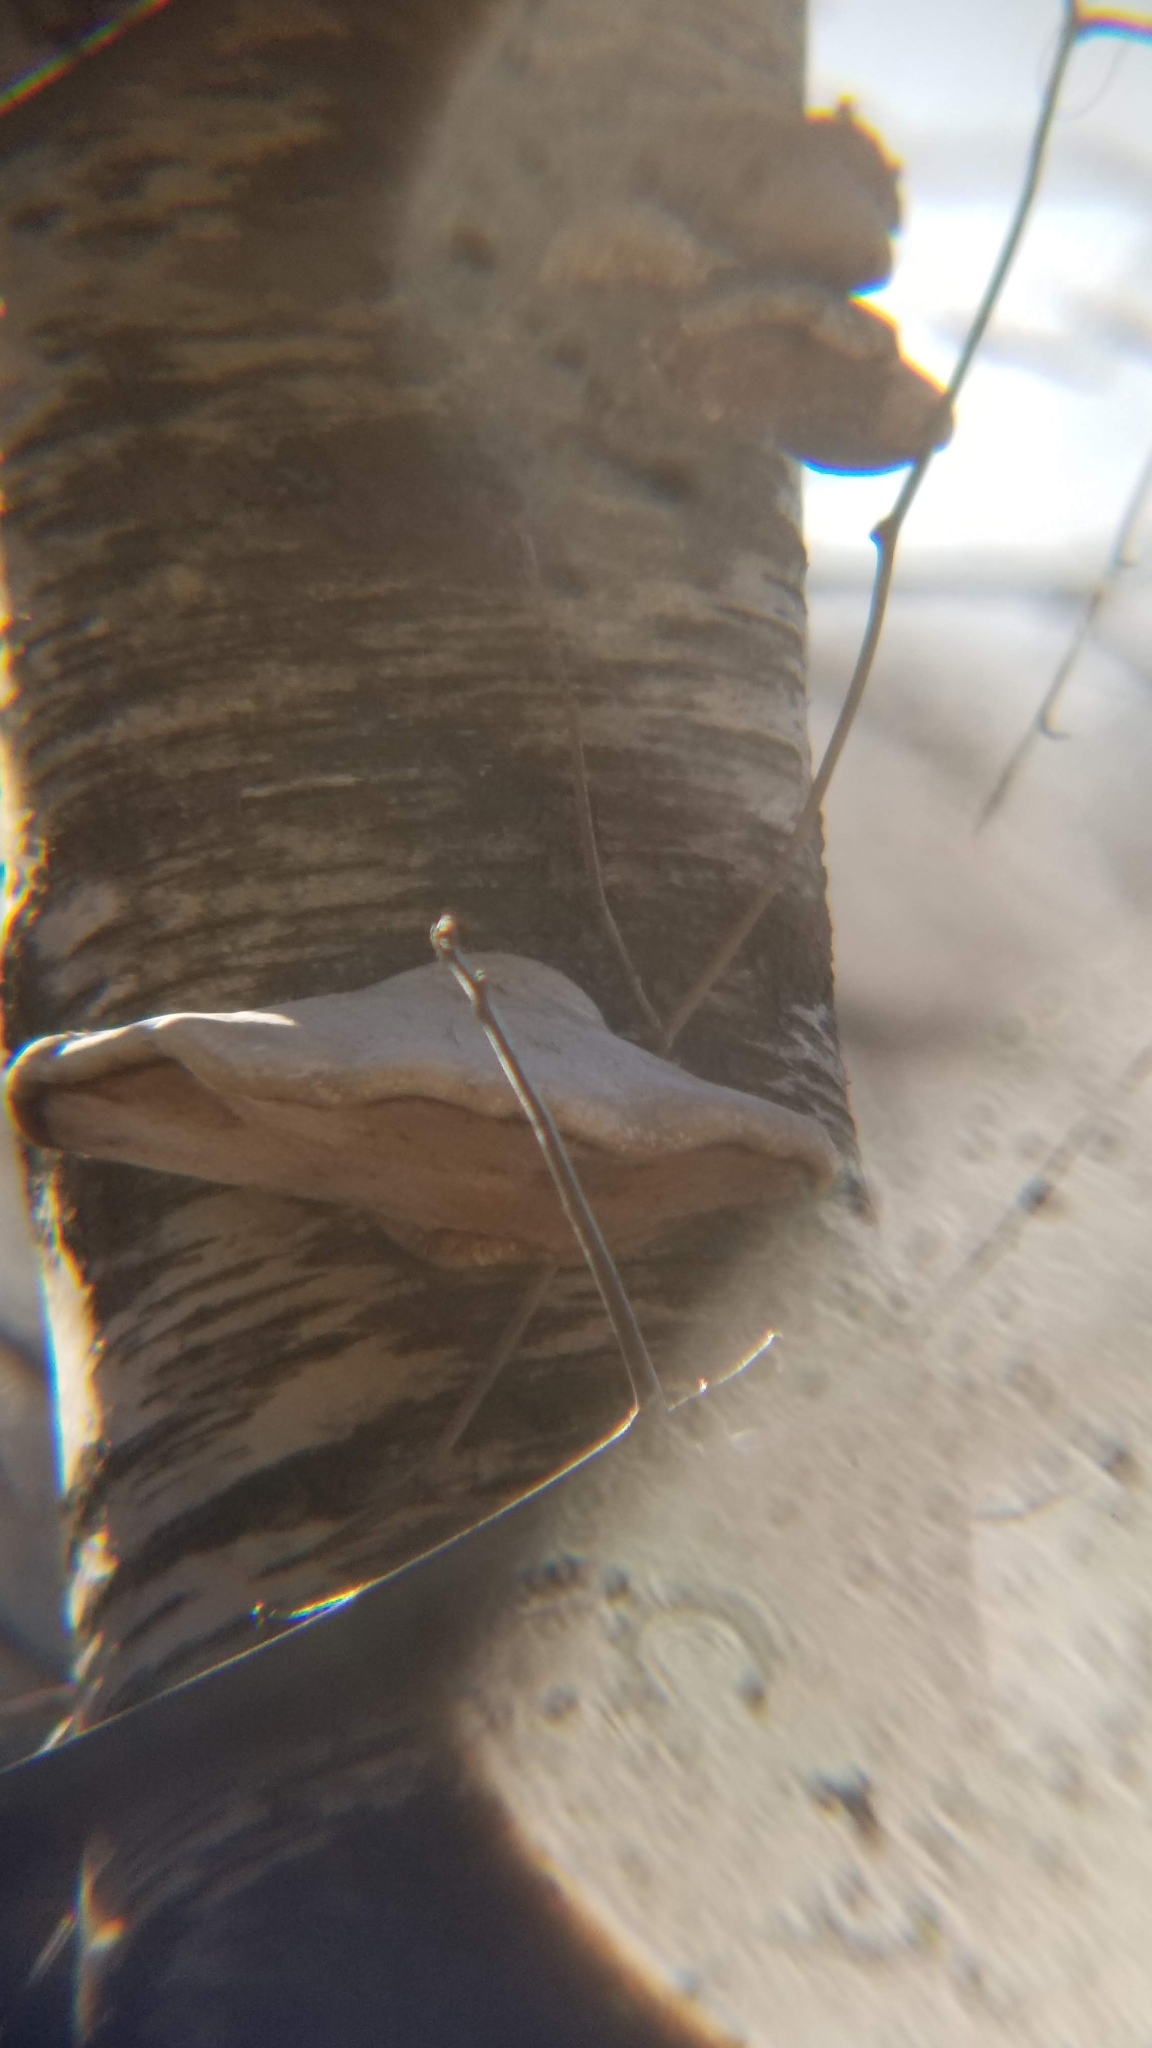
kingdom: Fungi
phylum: Basidiomycota
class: Agaricomycetes
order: Polyporales
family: Fomitopsidaceae
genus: Fomitopsis
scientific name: Fomitopsis betulina
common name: Birch polypore
